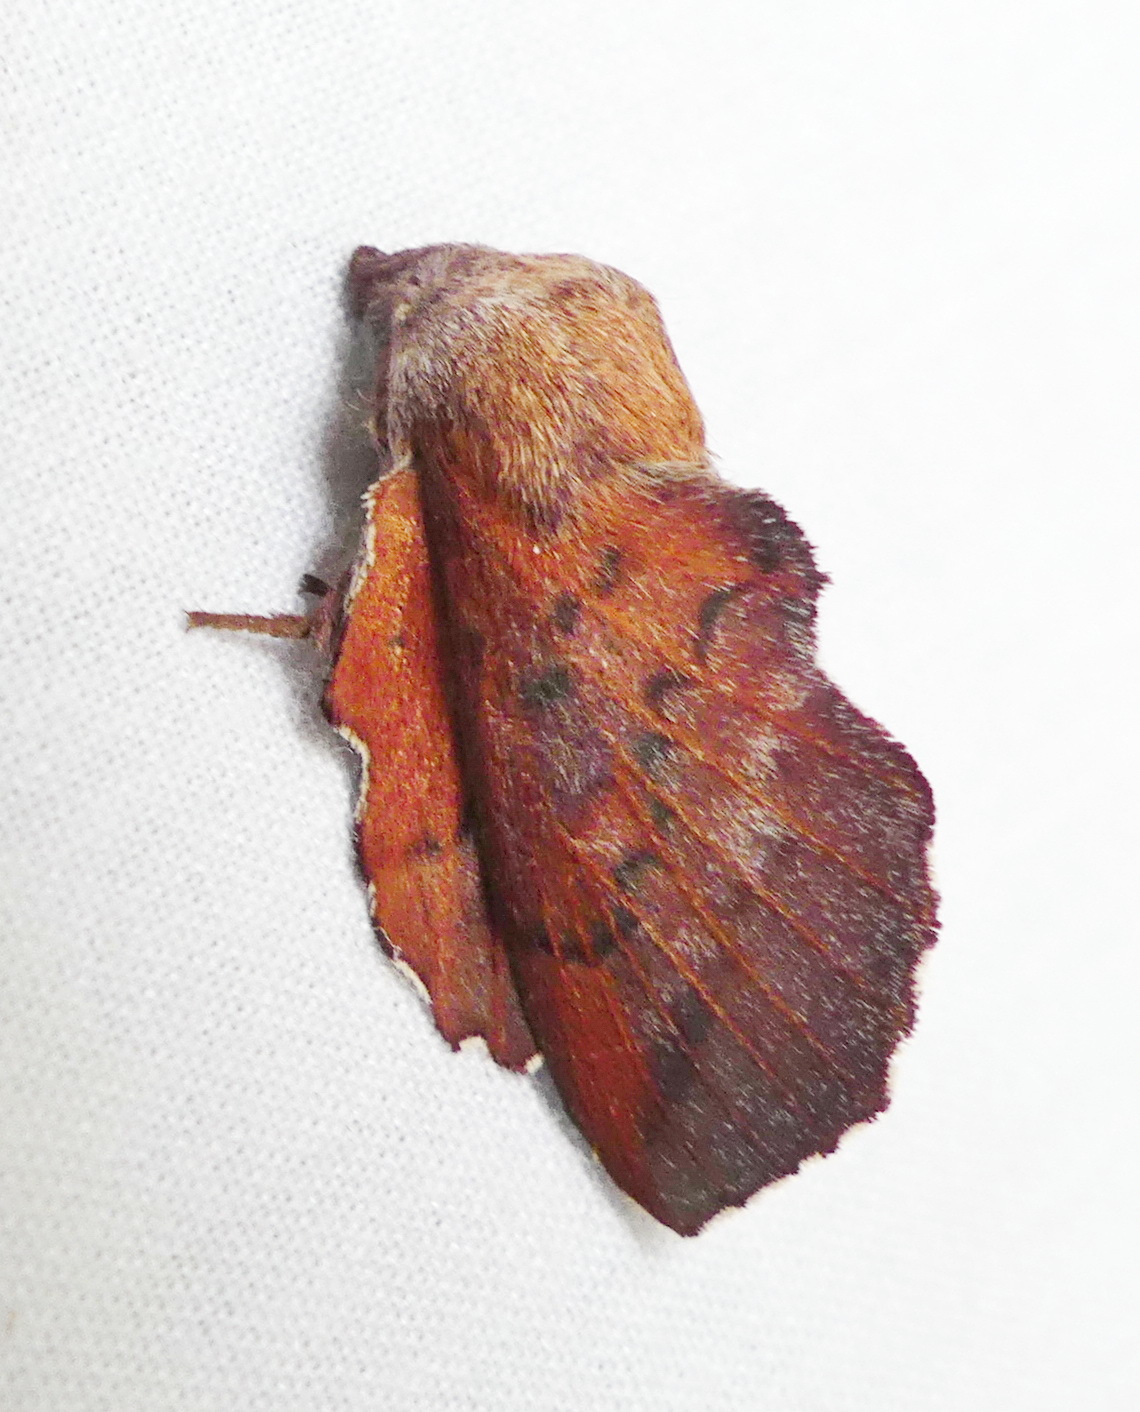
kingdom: Animalia
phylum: Arthropoda
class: Insecta
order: Lepidoptera
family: Lasiocampidae
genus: Phyllodesma
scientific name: Phyllodesma americana
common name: American lappet moth
